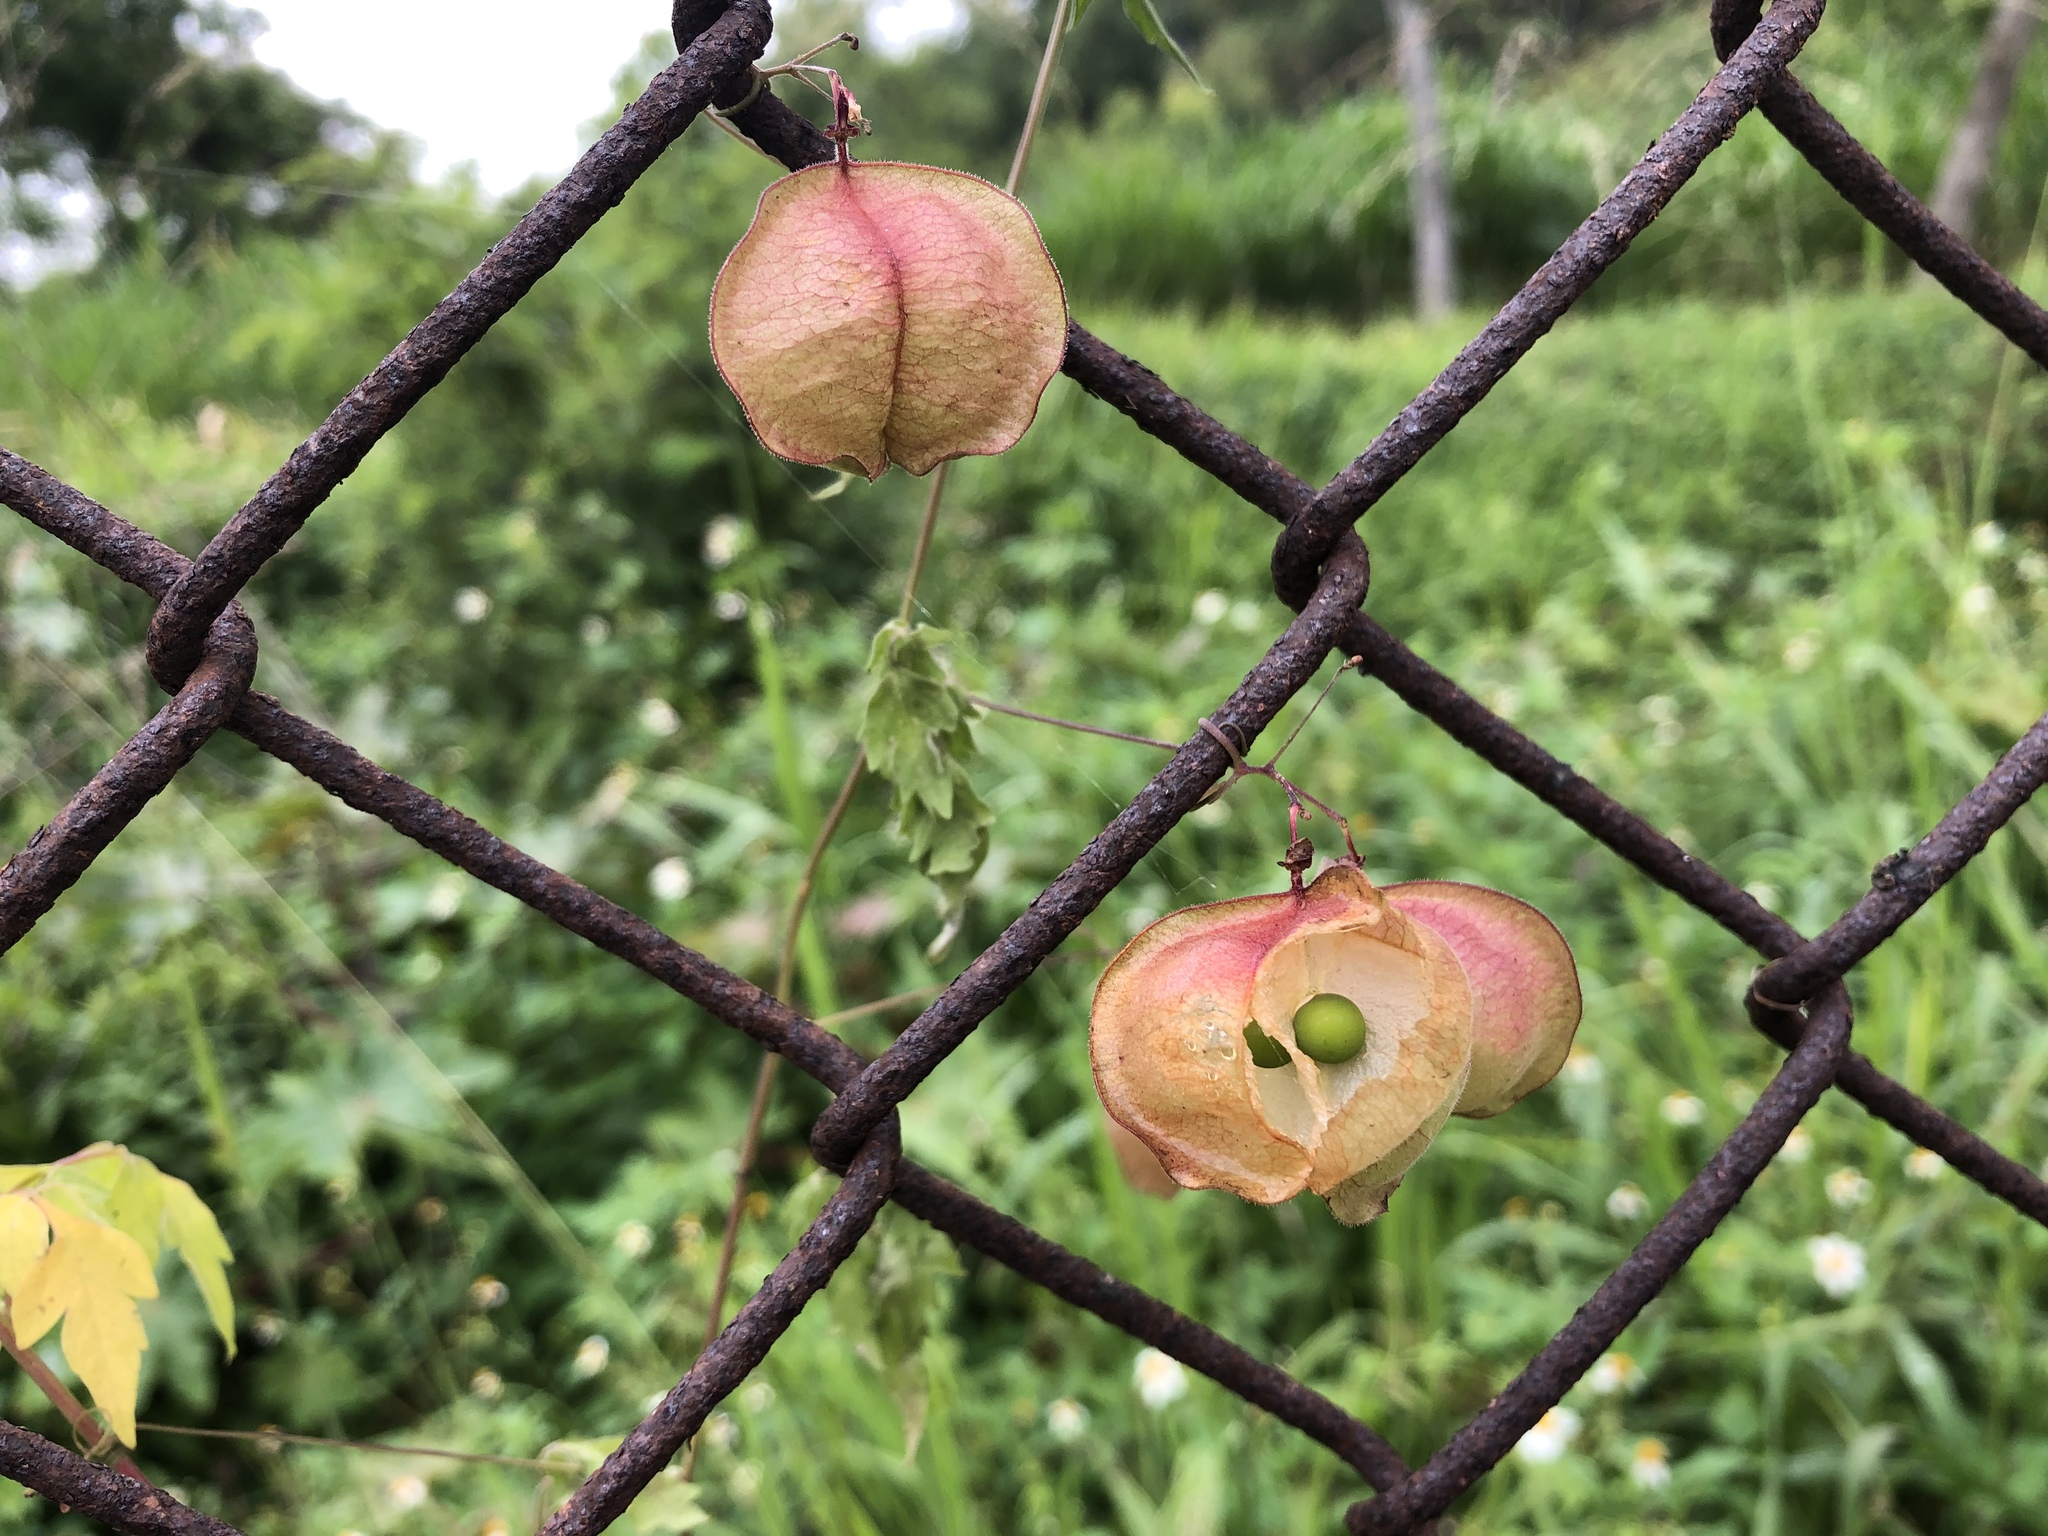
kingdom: Plantae
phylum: Tracheophyta
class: Magnoliopsida
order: Sapindales
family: Sapindaceae
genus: Cardiospermum
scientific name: Cardiospermum halicacabum
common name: Balloon vine
